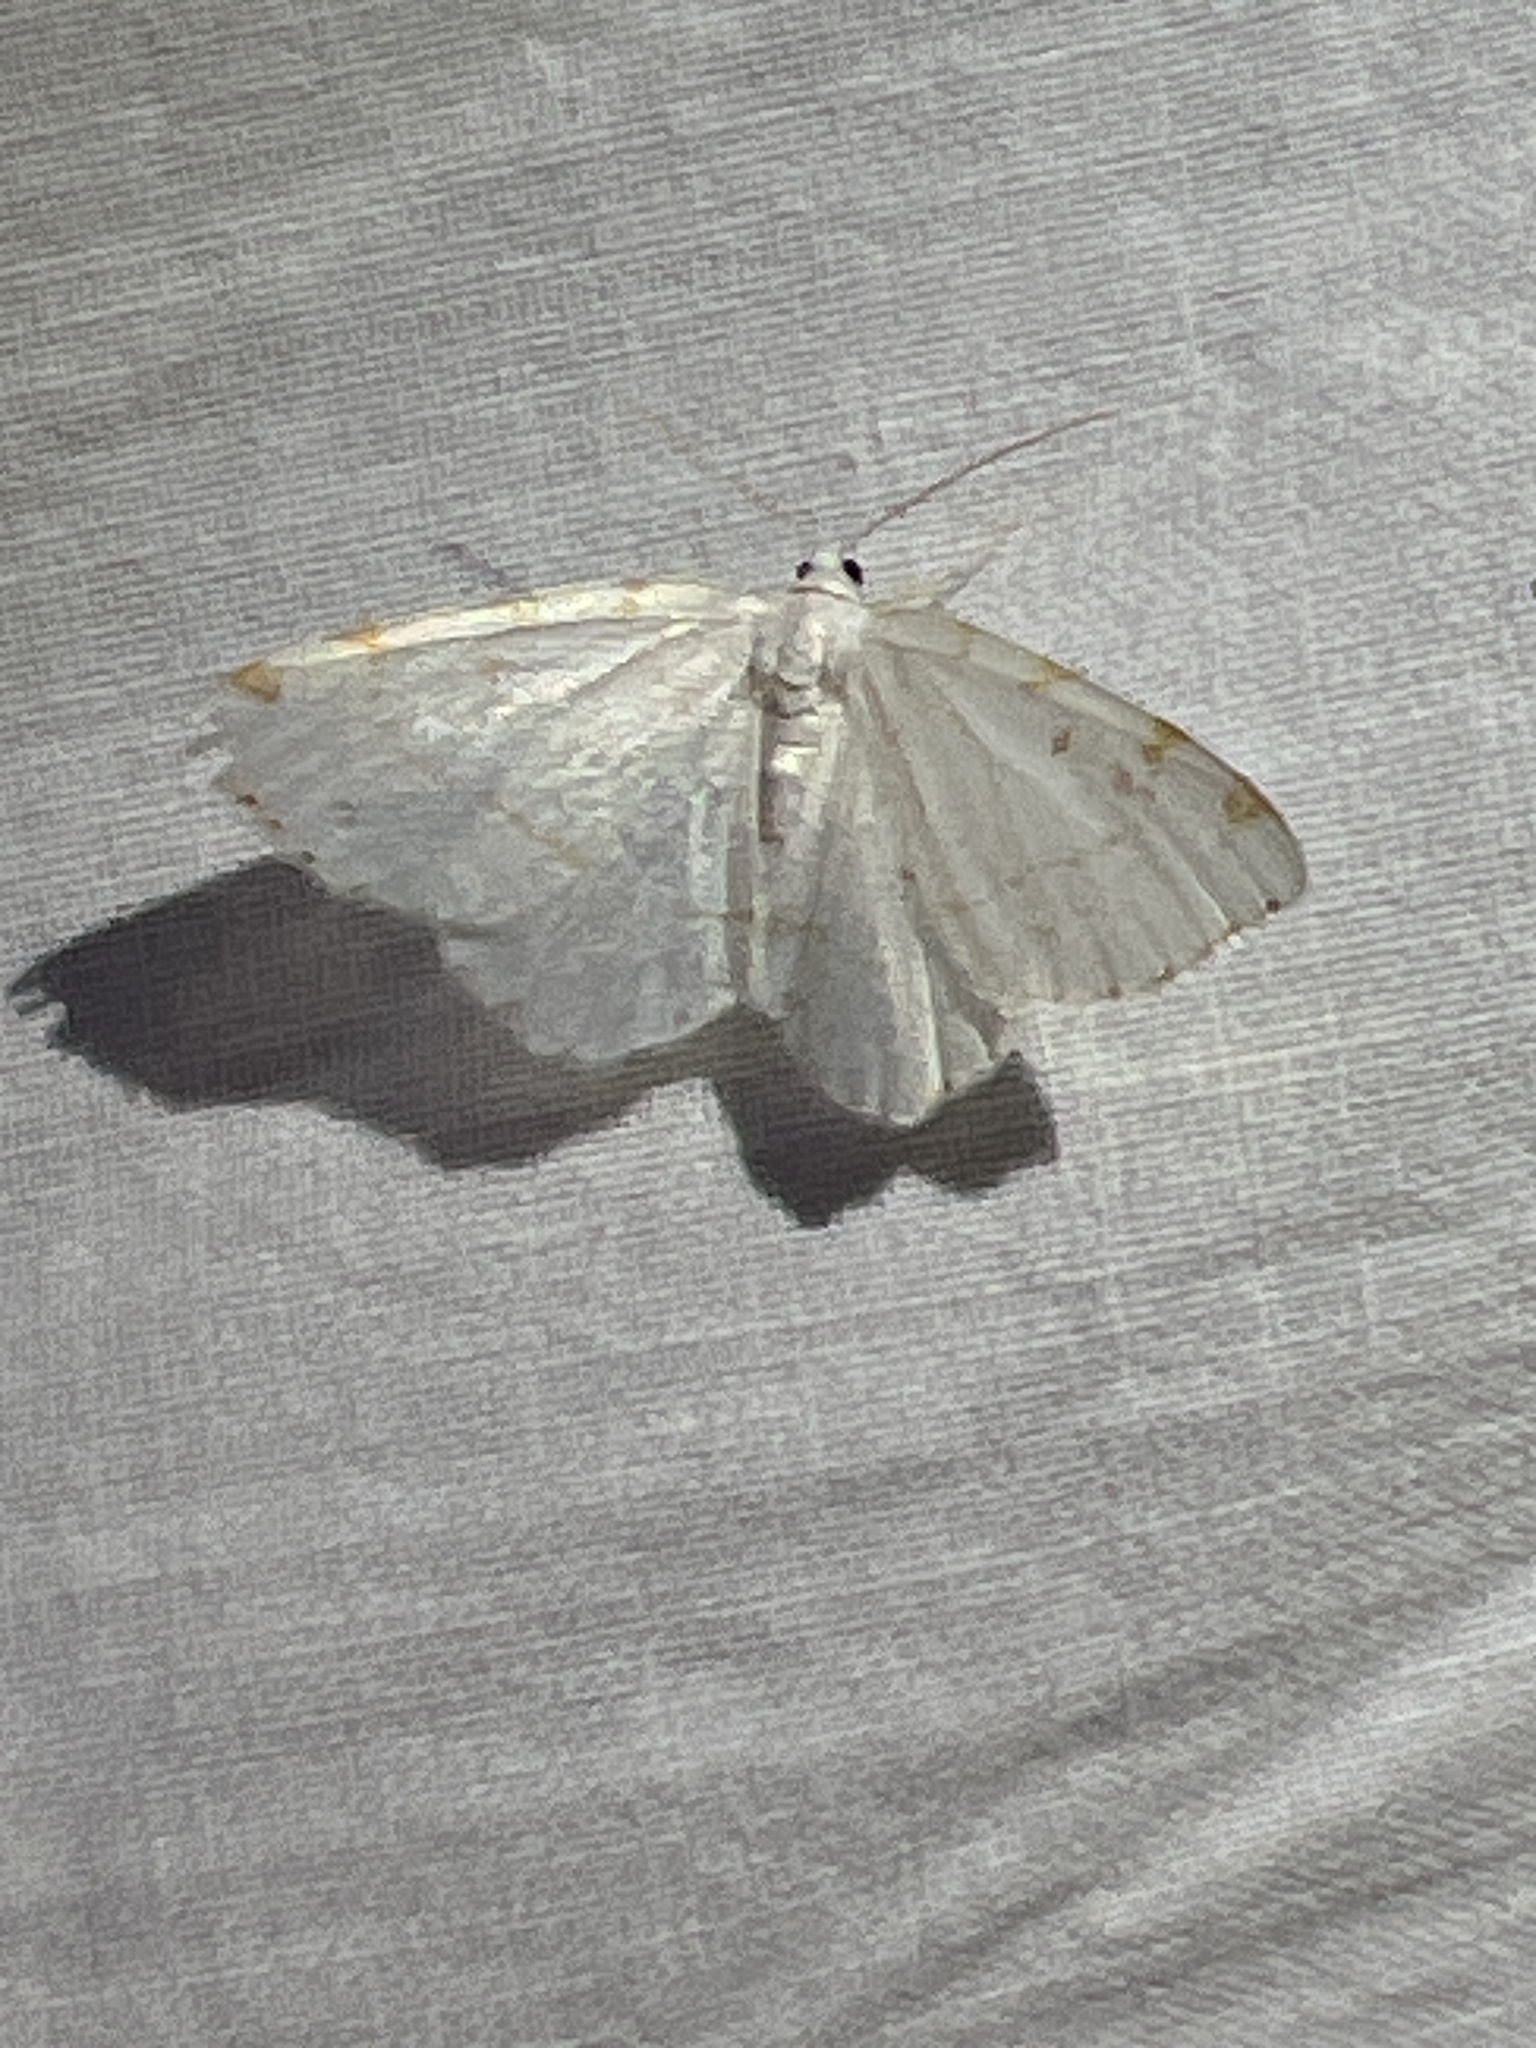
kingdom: Animalia
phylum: Arthropoda
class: Insecta
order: Lepidoptera
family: Geometridae
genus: Macaria
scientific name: Macaria pustularia
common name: Lesser maple spanworm moth
